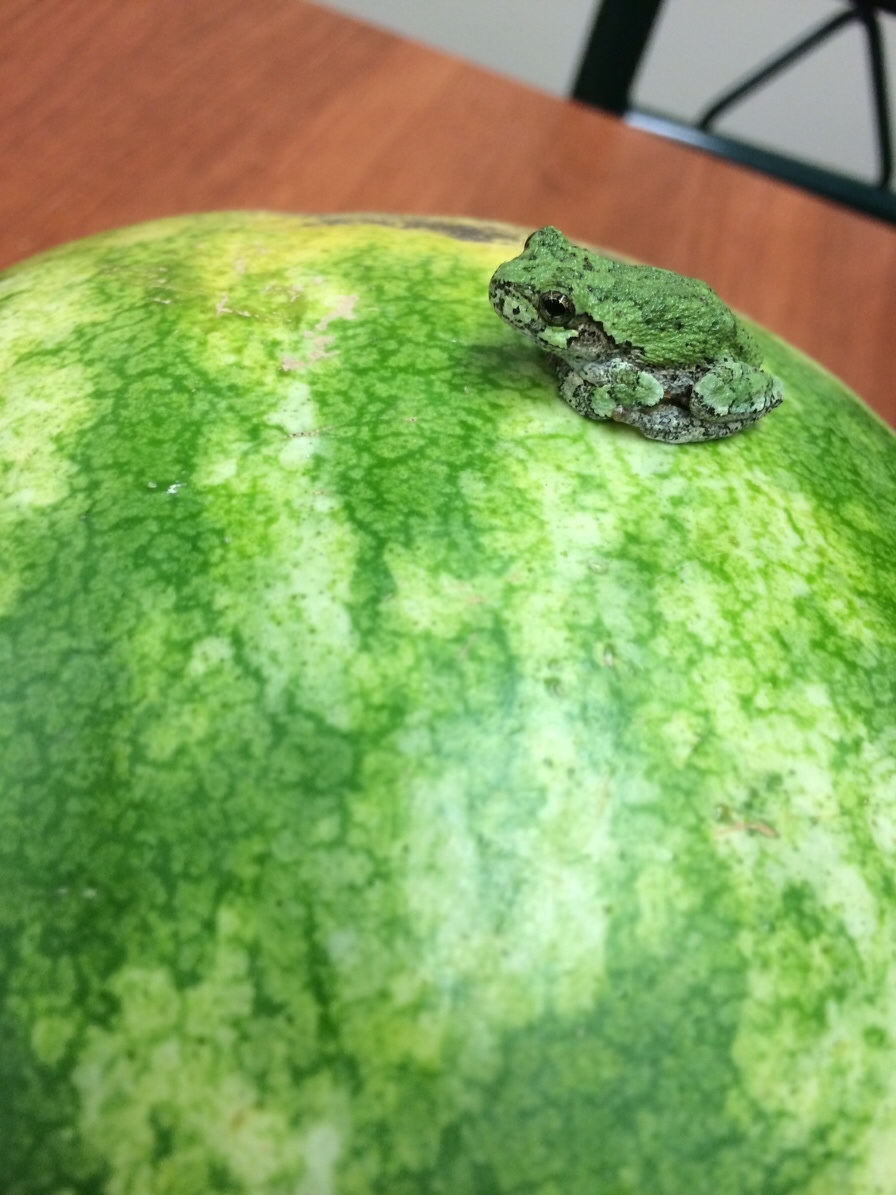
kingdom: Animalia
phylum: Chordata
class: Amphibia
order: Anura
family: Hylidae
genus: Dryophytes
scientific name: Dryophytes versicolor
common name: Gray treefrog
